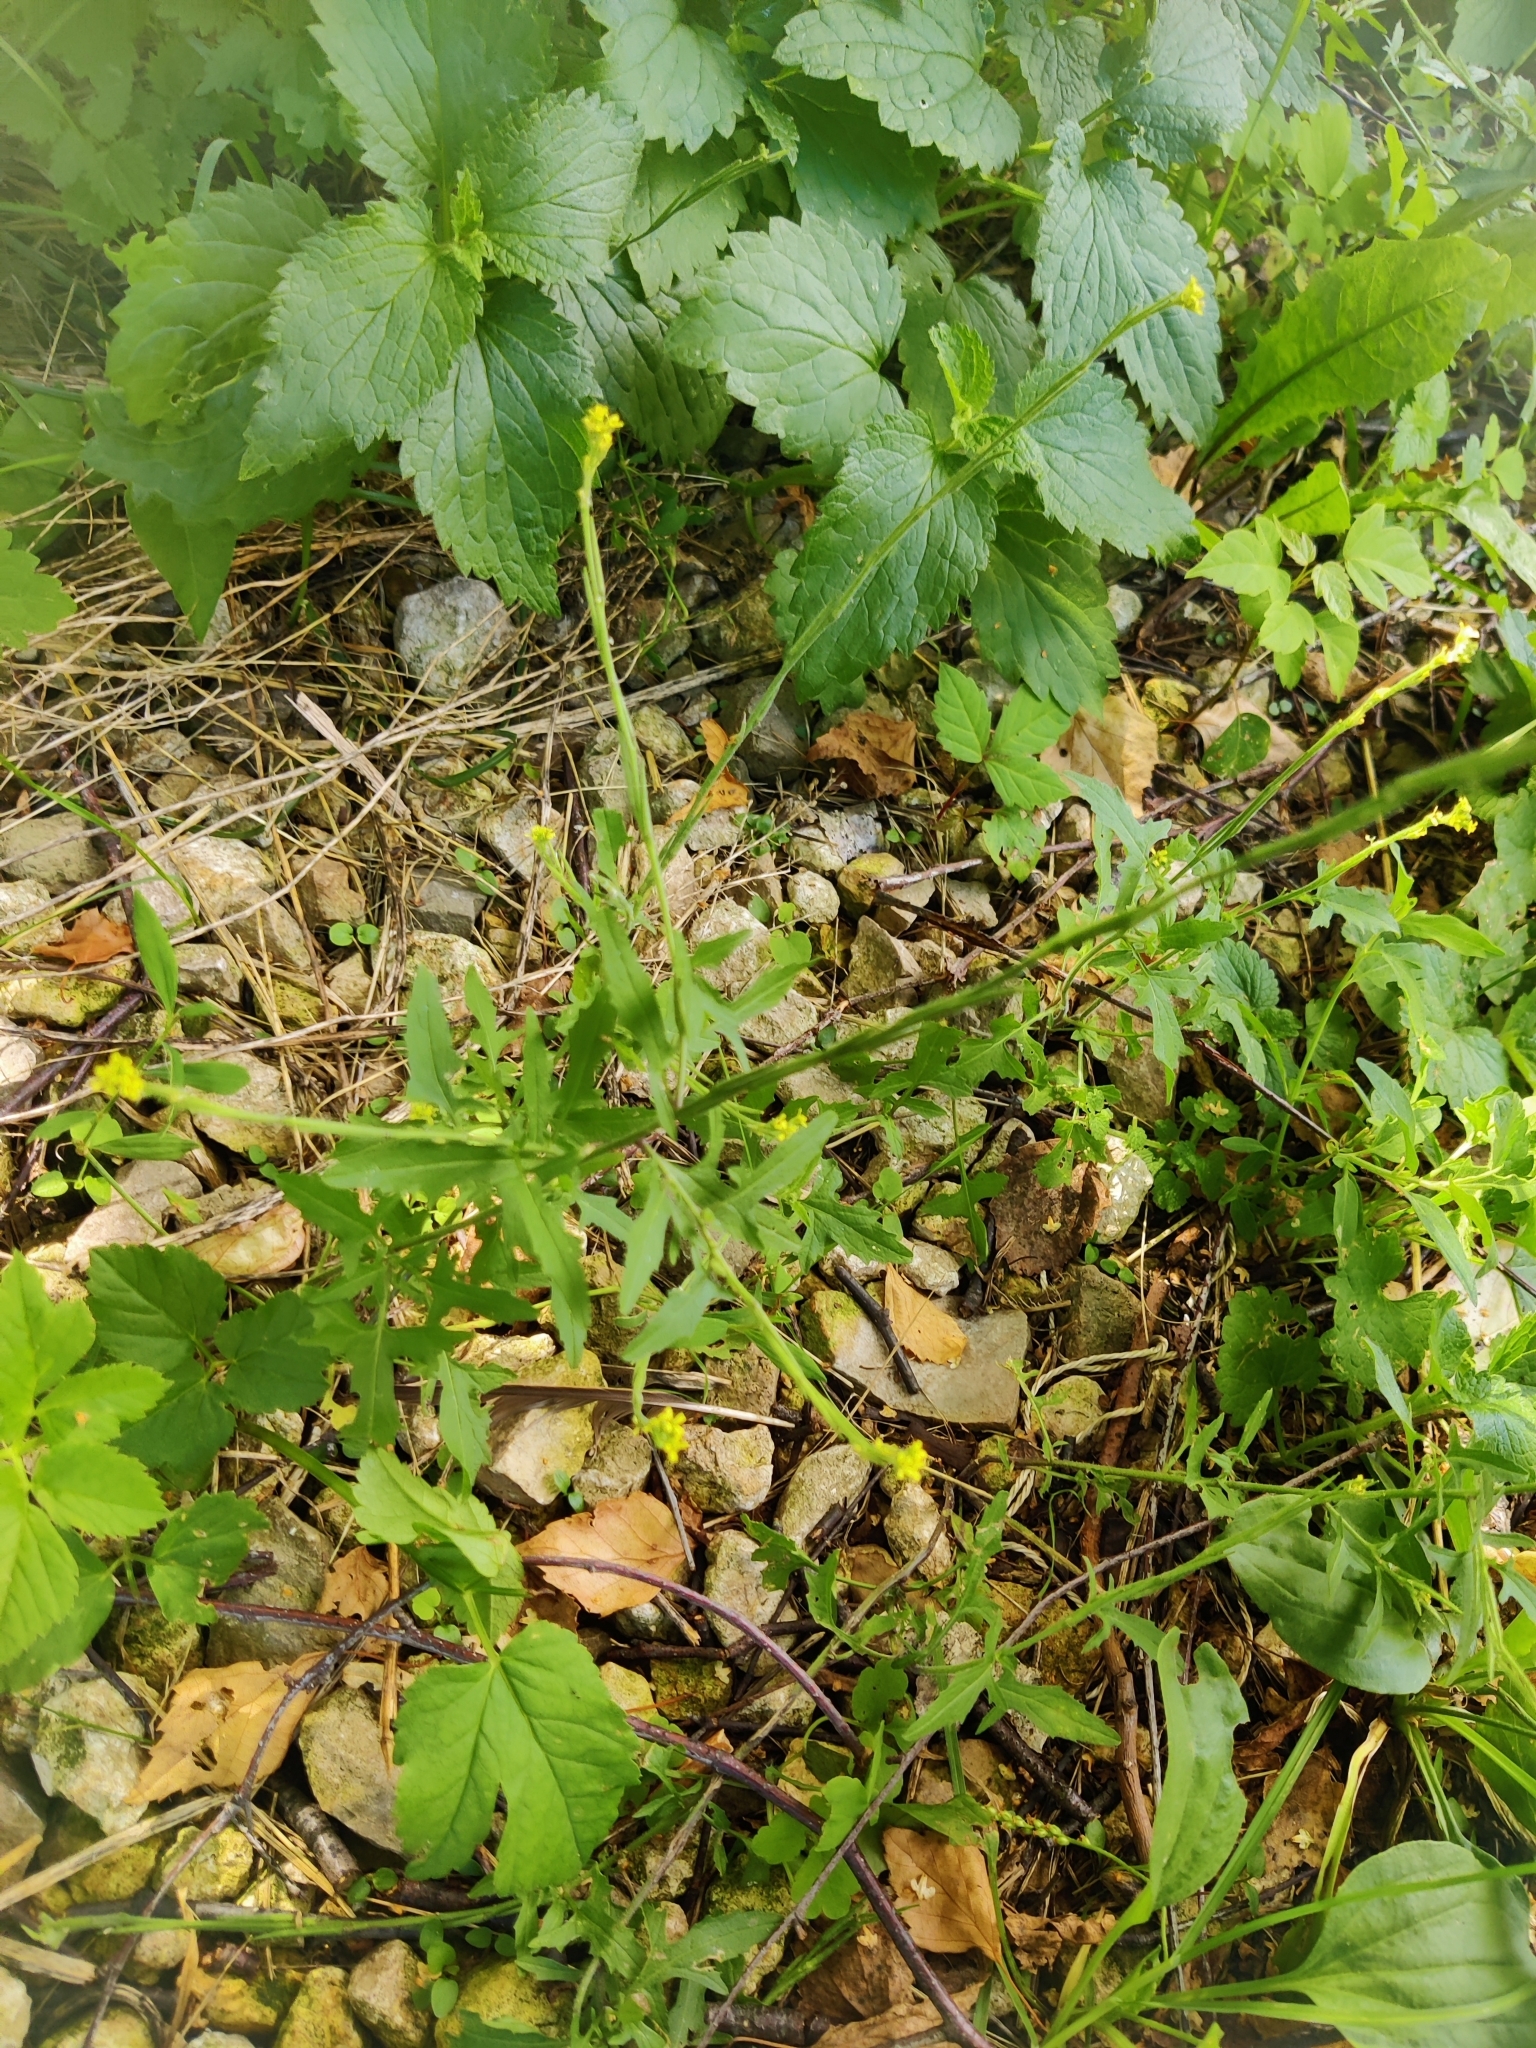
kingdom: Plantae
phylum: Tracheophyta
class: Magnoliopsida
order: Brassicales
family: Brassicaceae
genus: Sisymbrium
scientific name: Sisymbrium officinale
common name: Hedge mustard
